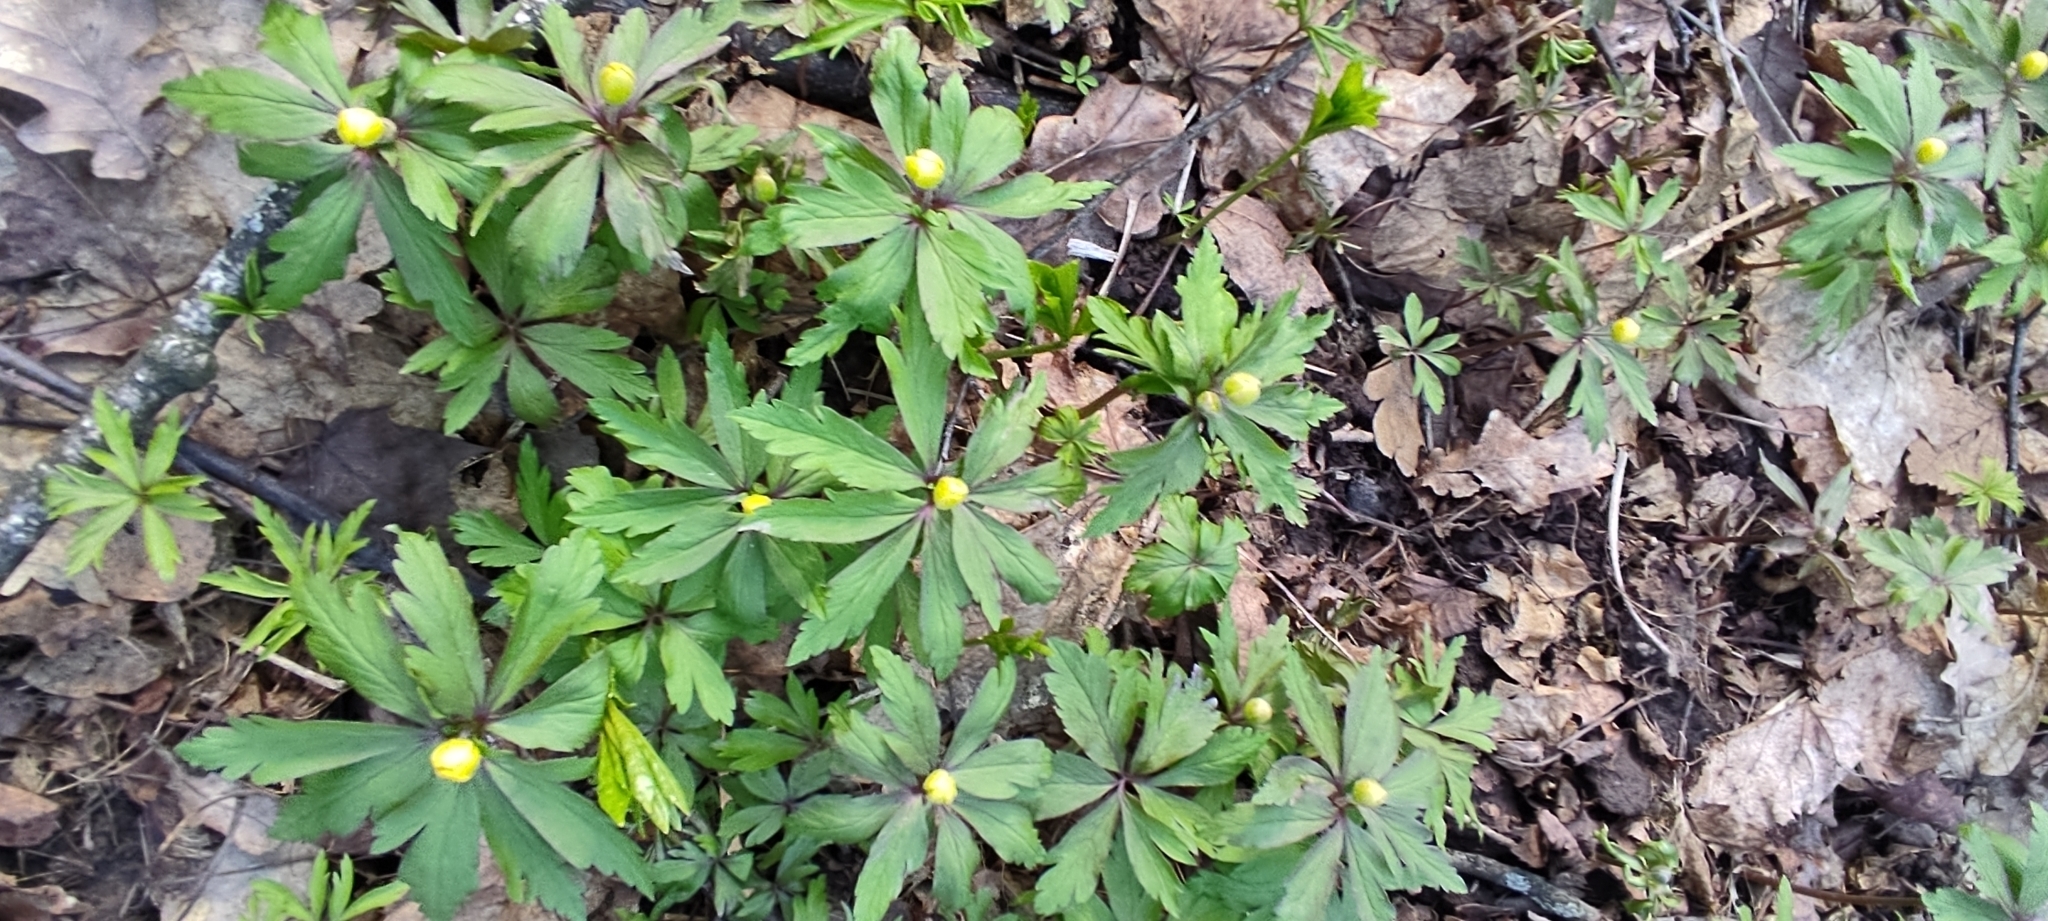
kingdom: Plantae
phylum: Tracheophyta
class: Magnoliopsida
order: Ranunculales
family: Ranunculaceae
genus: Anemone
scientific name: Anemone ranunculoides
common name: Yellow anemone
